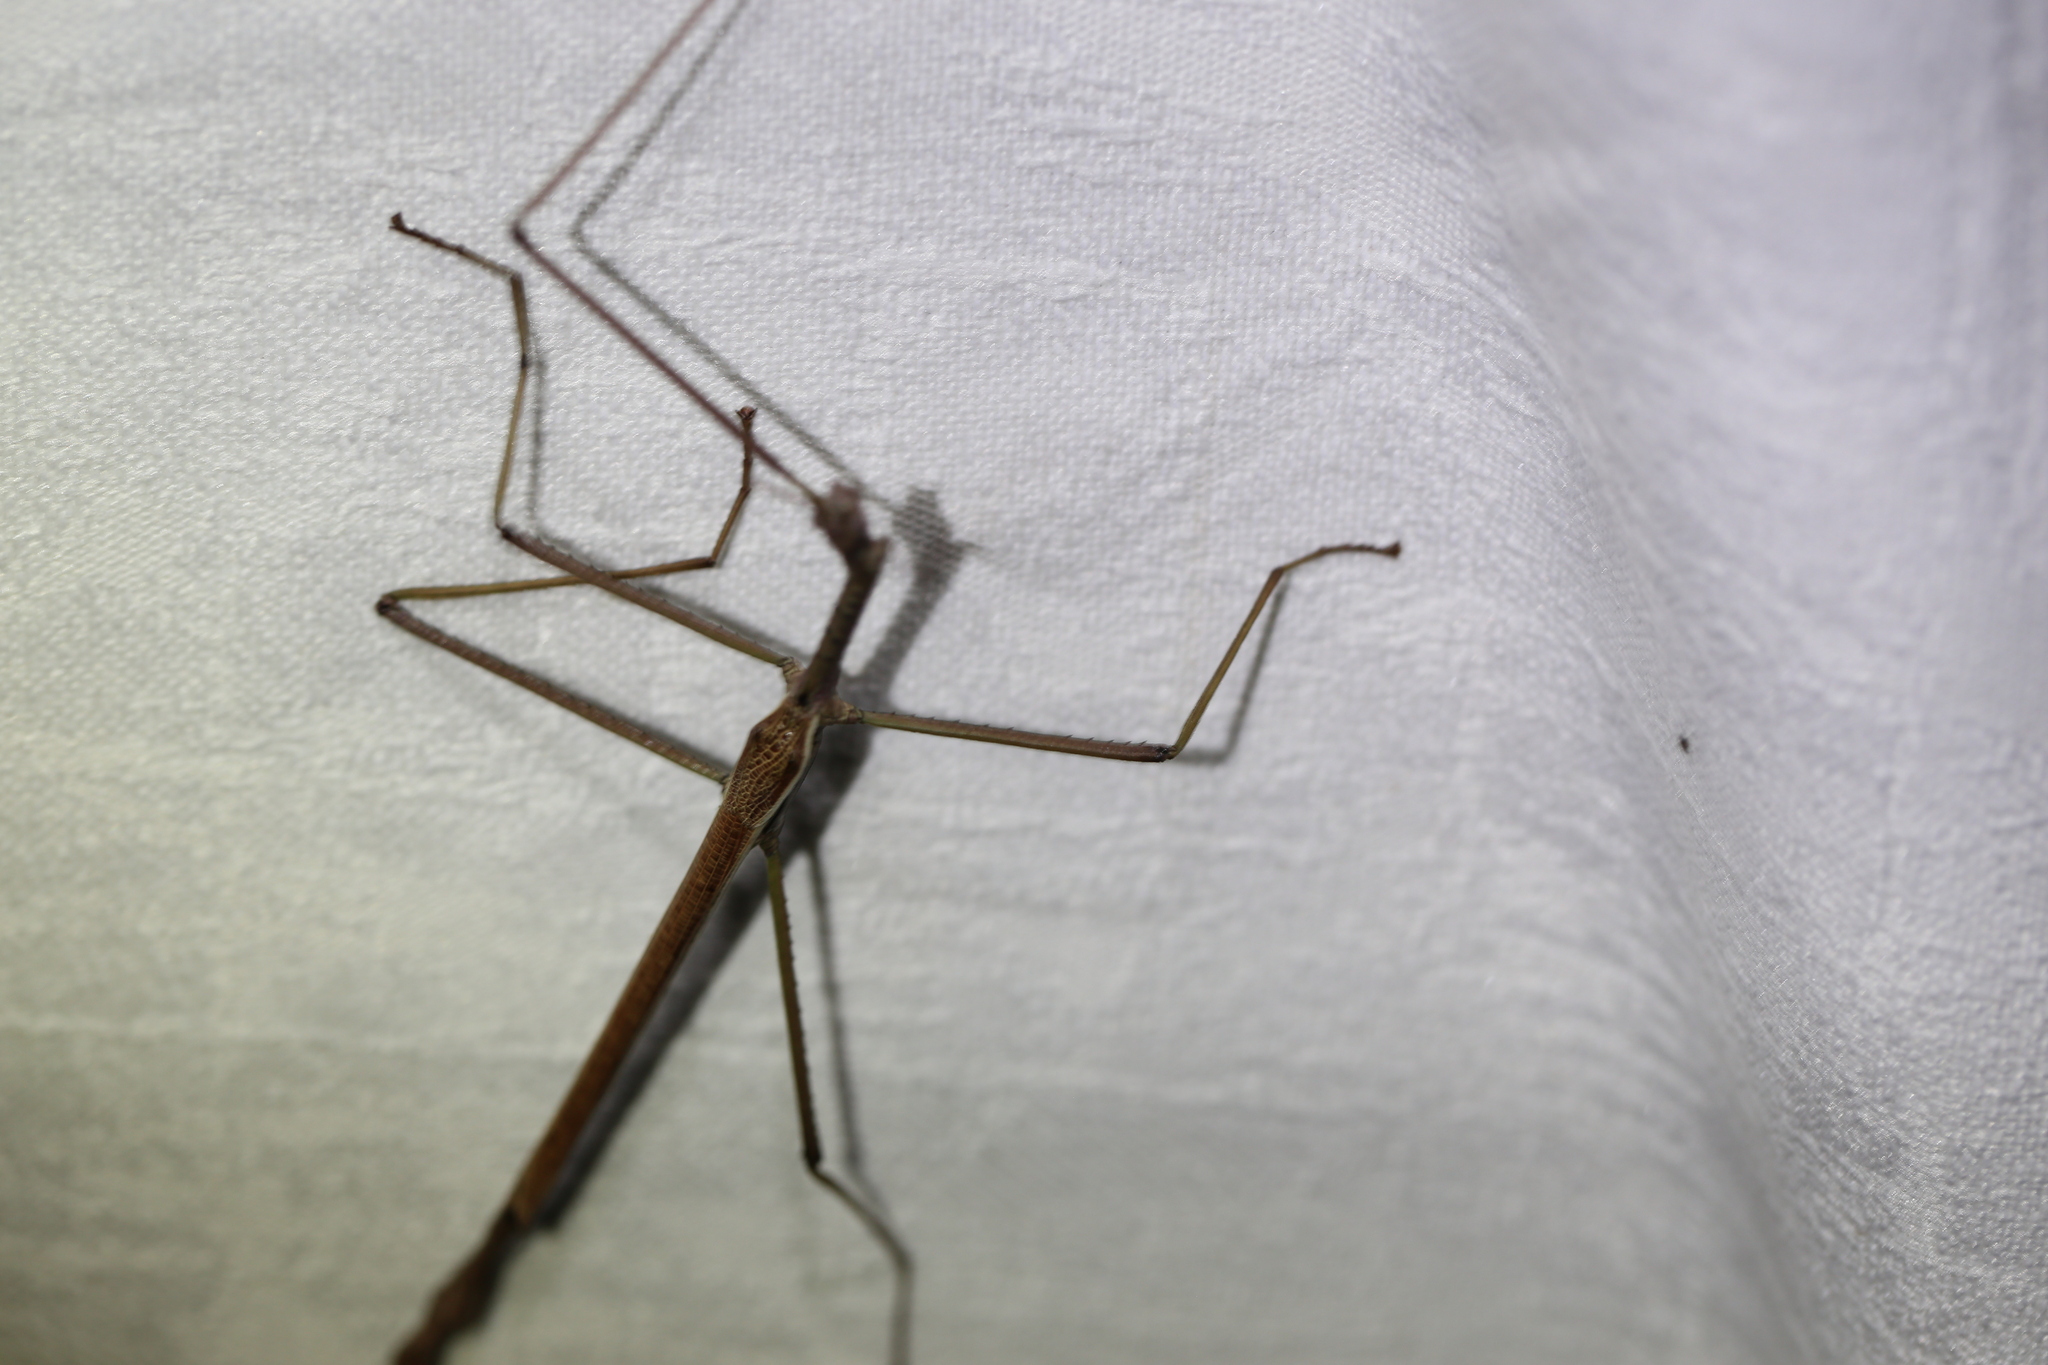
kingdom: Animalia
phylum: Arthropoda
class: Insecta
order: Phasmida
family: Phasmatidae
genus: Anchiale
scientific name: Anchiale austrotessulata
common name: Tessellated stick-insect
